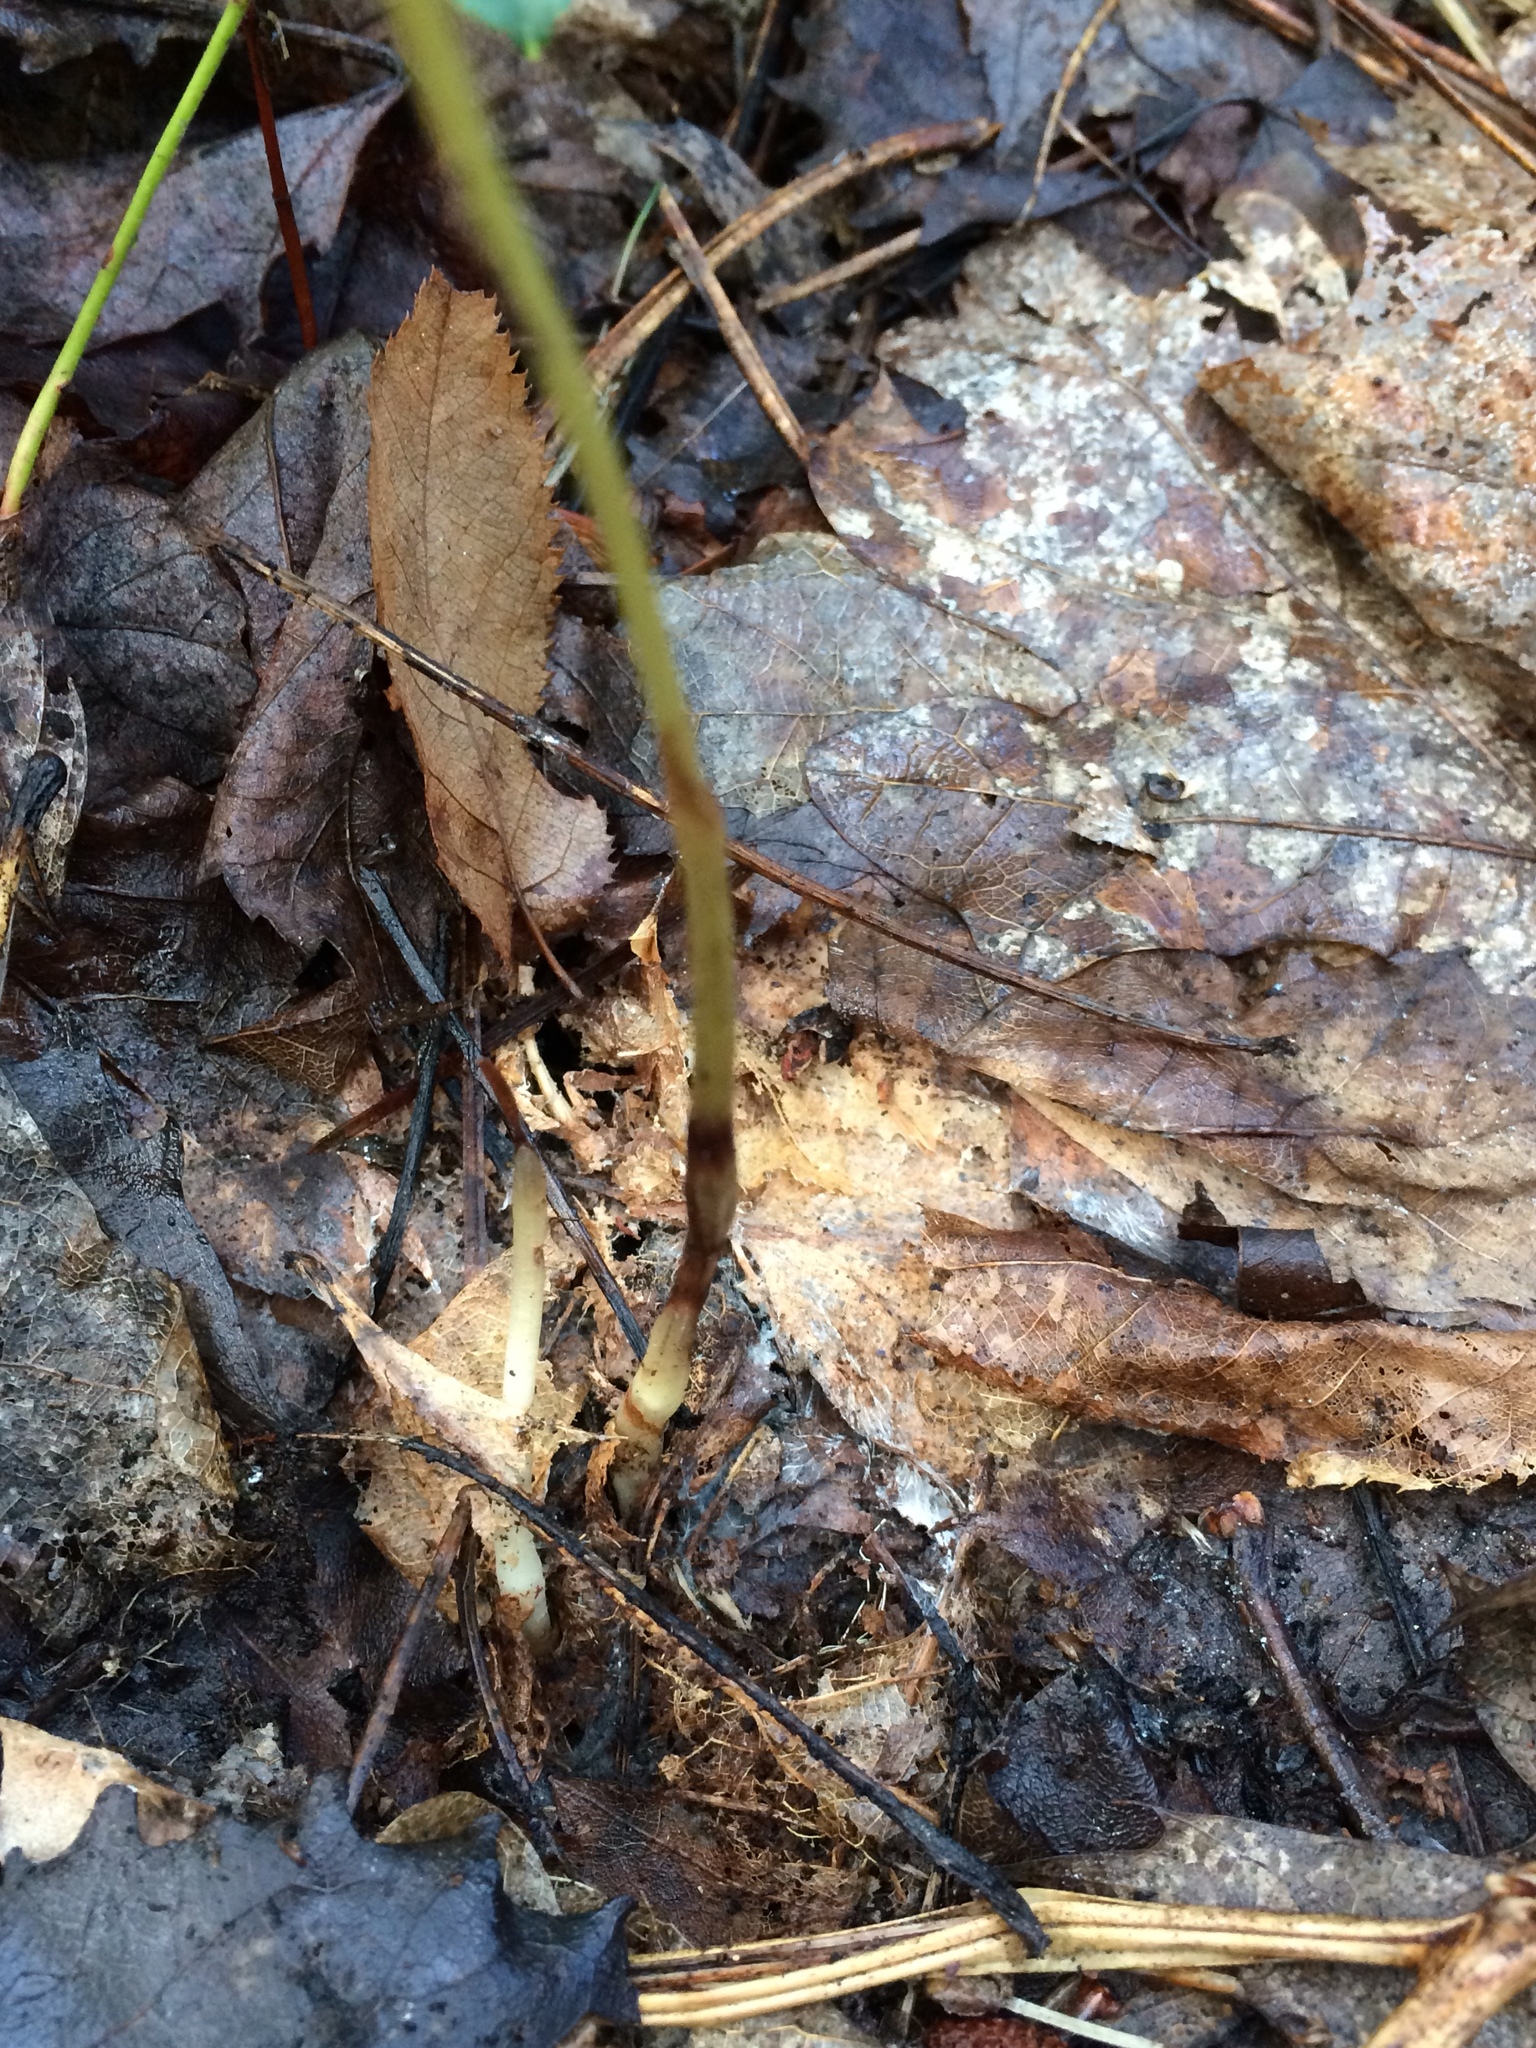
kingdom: Plantae
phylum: Tracheophyta
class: Liliopsida
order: Asparagales
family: Orchidaceae
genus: Corallorhiza
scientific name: Corallorhiza odontorhiza
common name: Autumn coralroot
